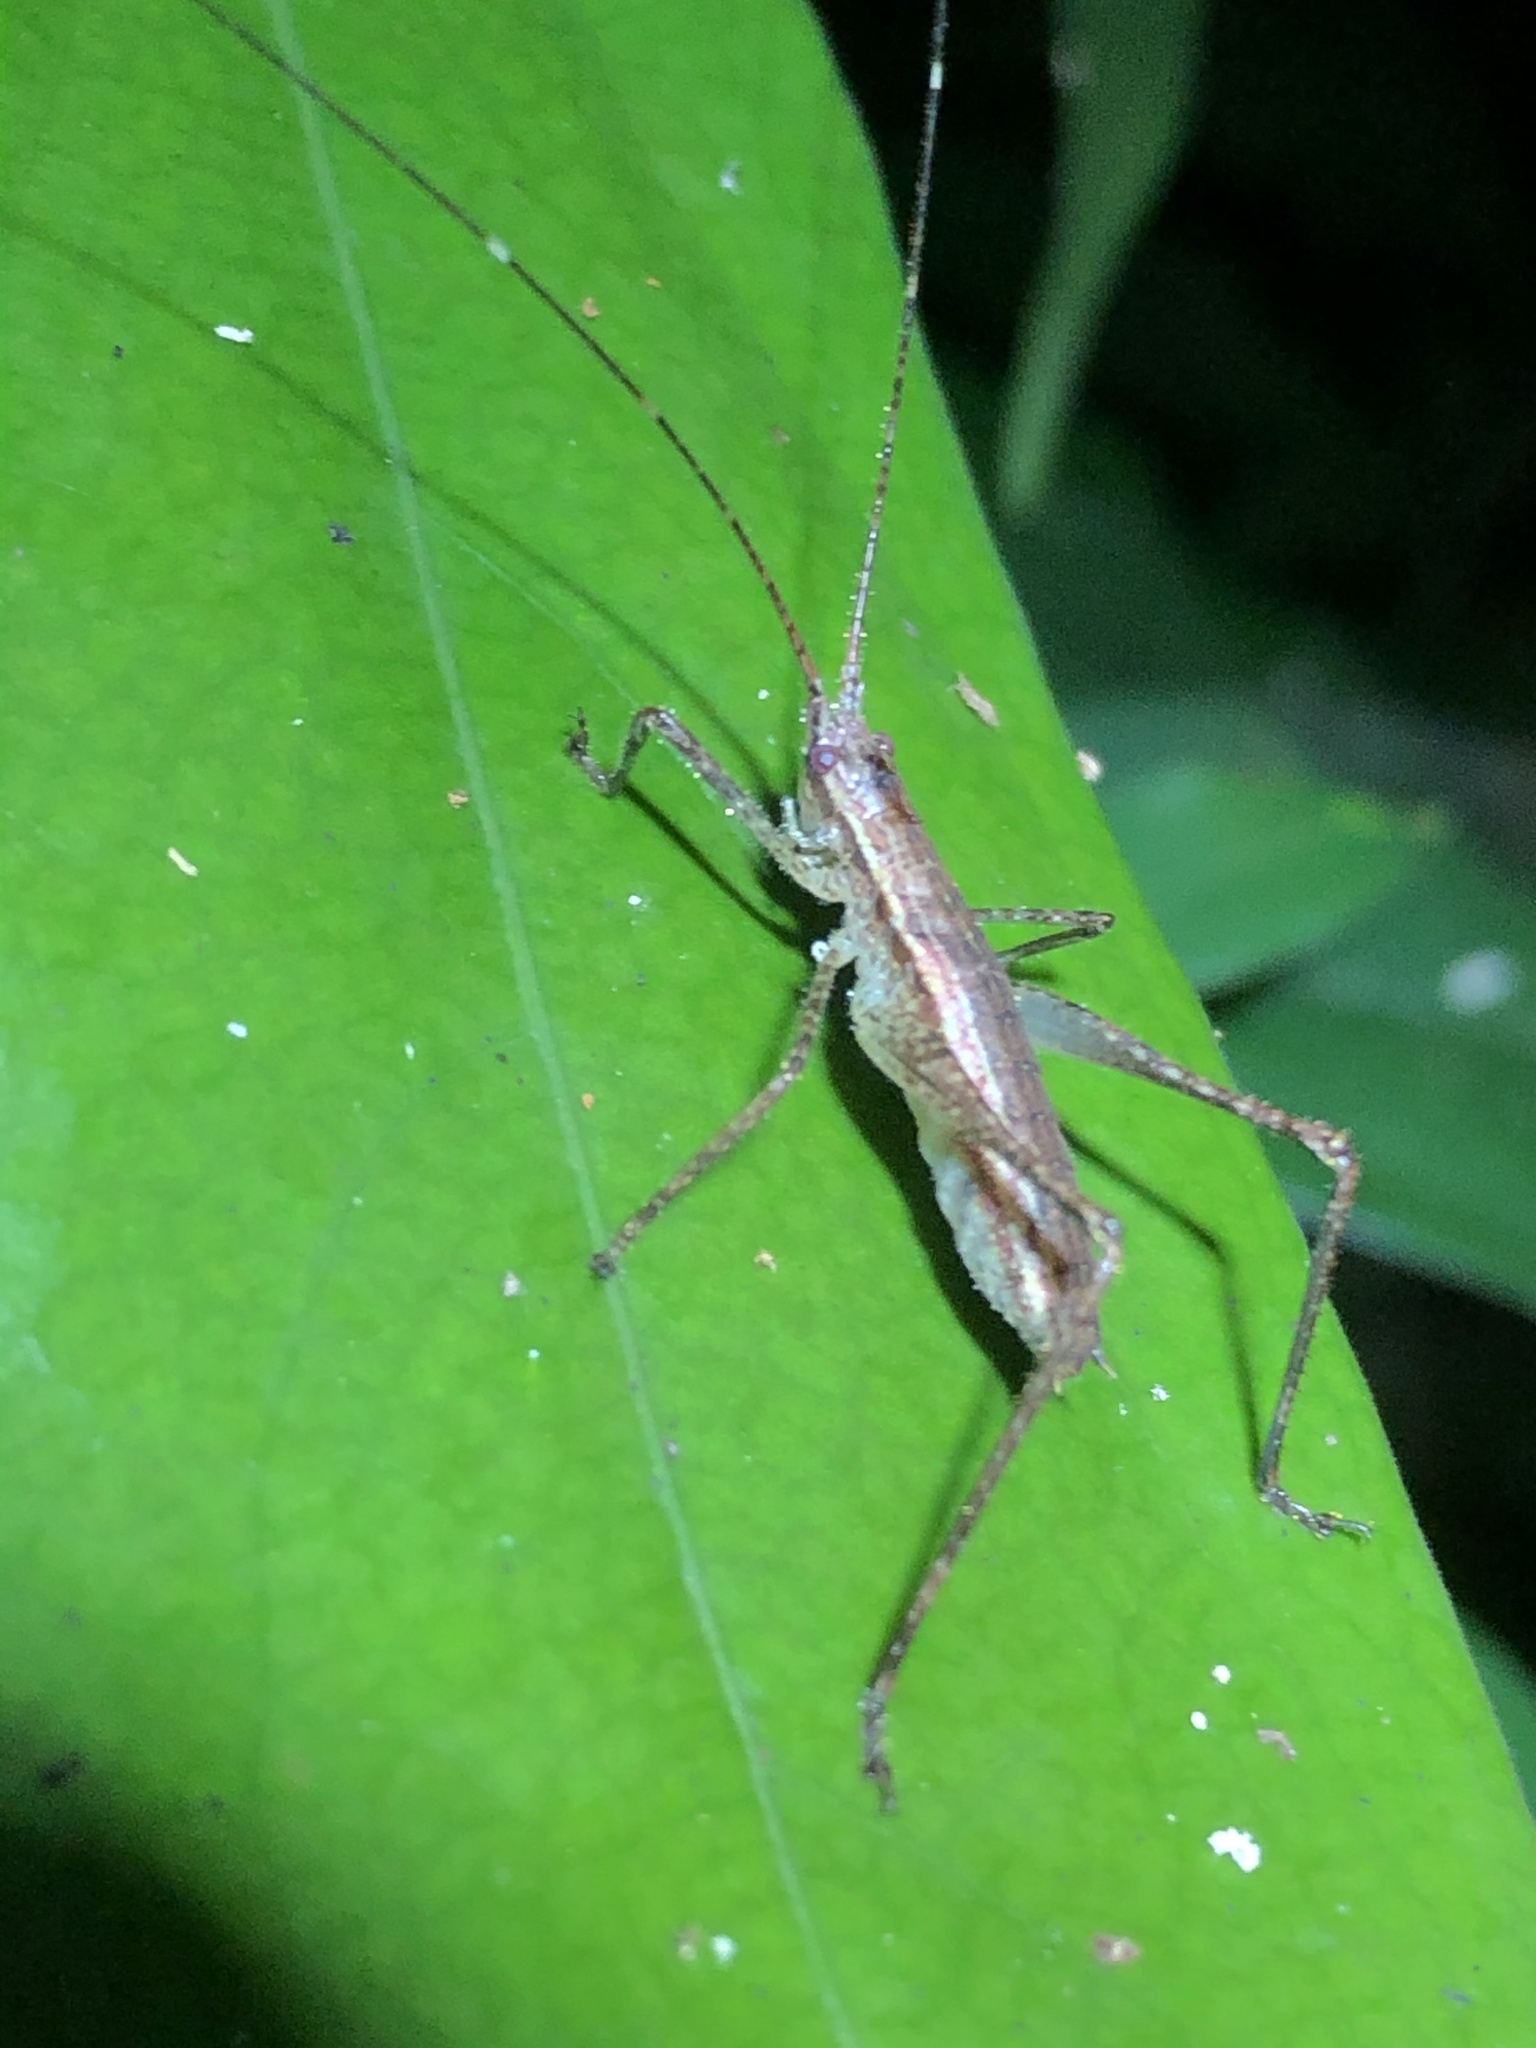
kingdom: Animalia
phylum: Arthropoda
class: Insecta
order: Orthoptera
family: Tettigoniidae
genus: Pedinothorax
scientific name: Pedinothorax exiguus
